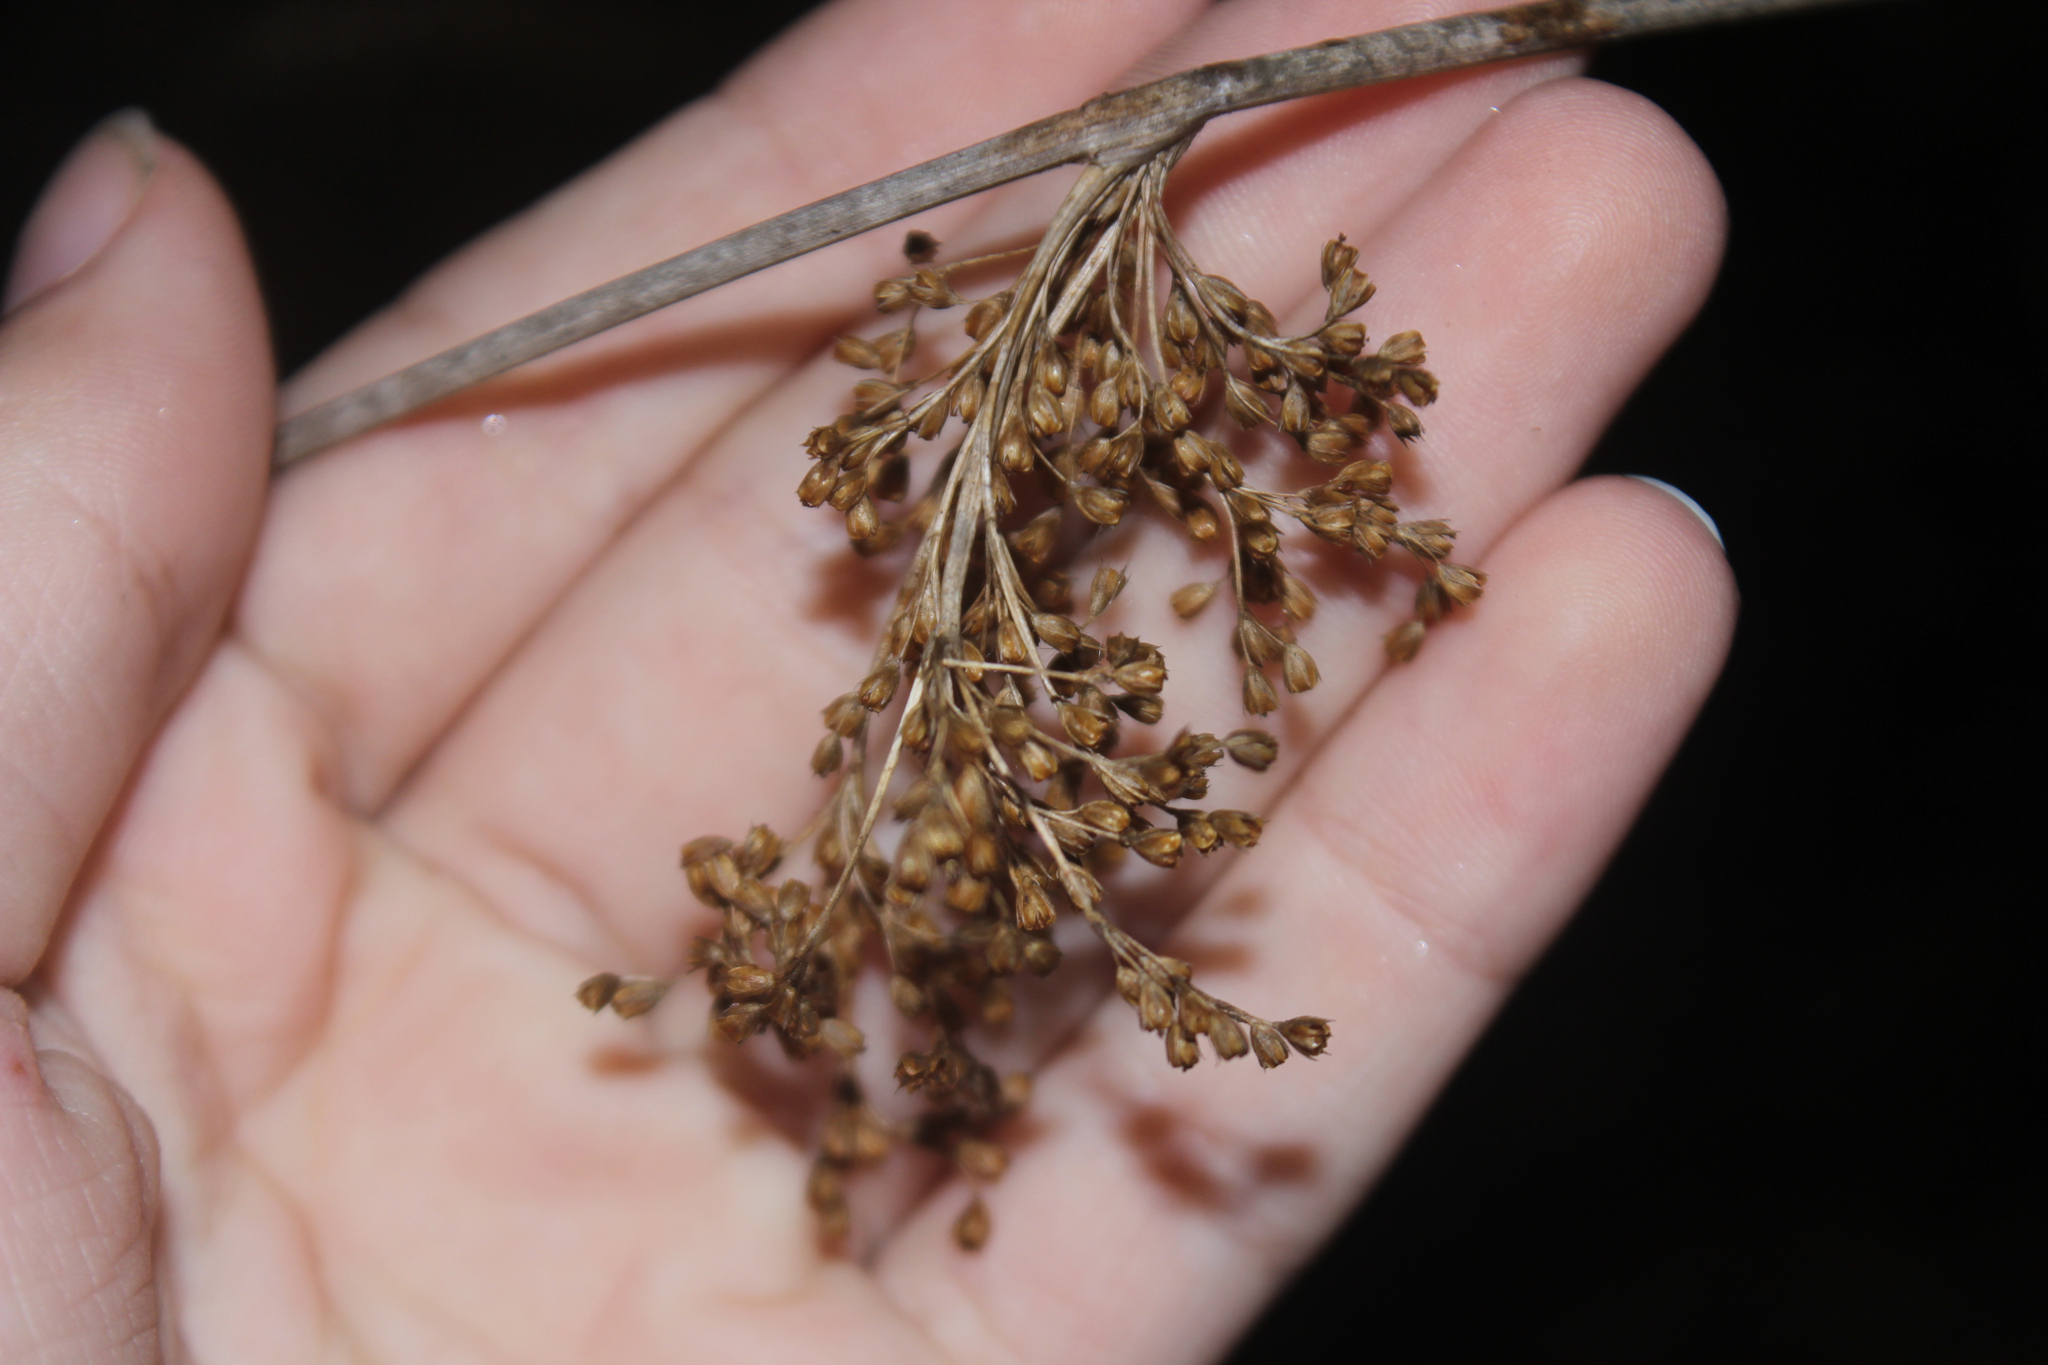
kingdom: Plantae
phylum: Tracheophyta
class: Liliopsida
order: Poales
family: Juncaceae
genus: Juncus
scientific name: Juncus effusus
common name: Soft rush
